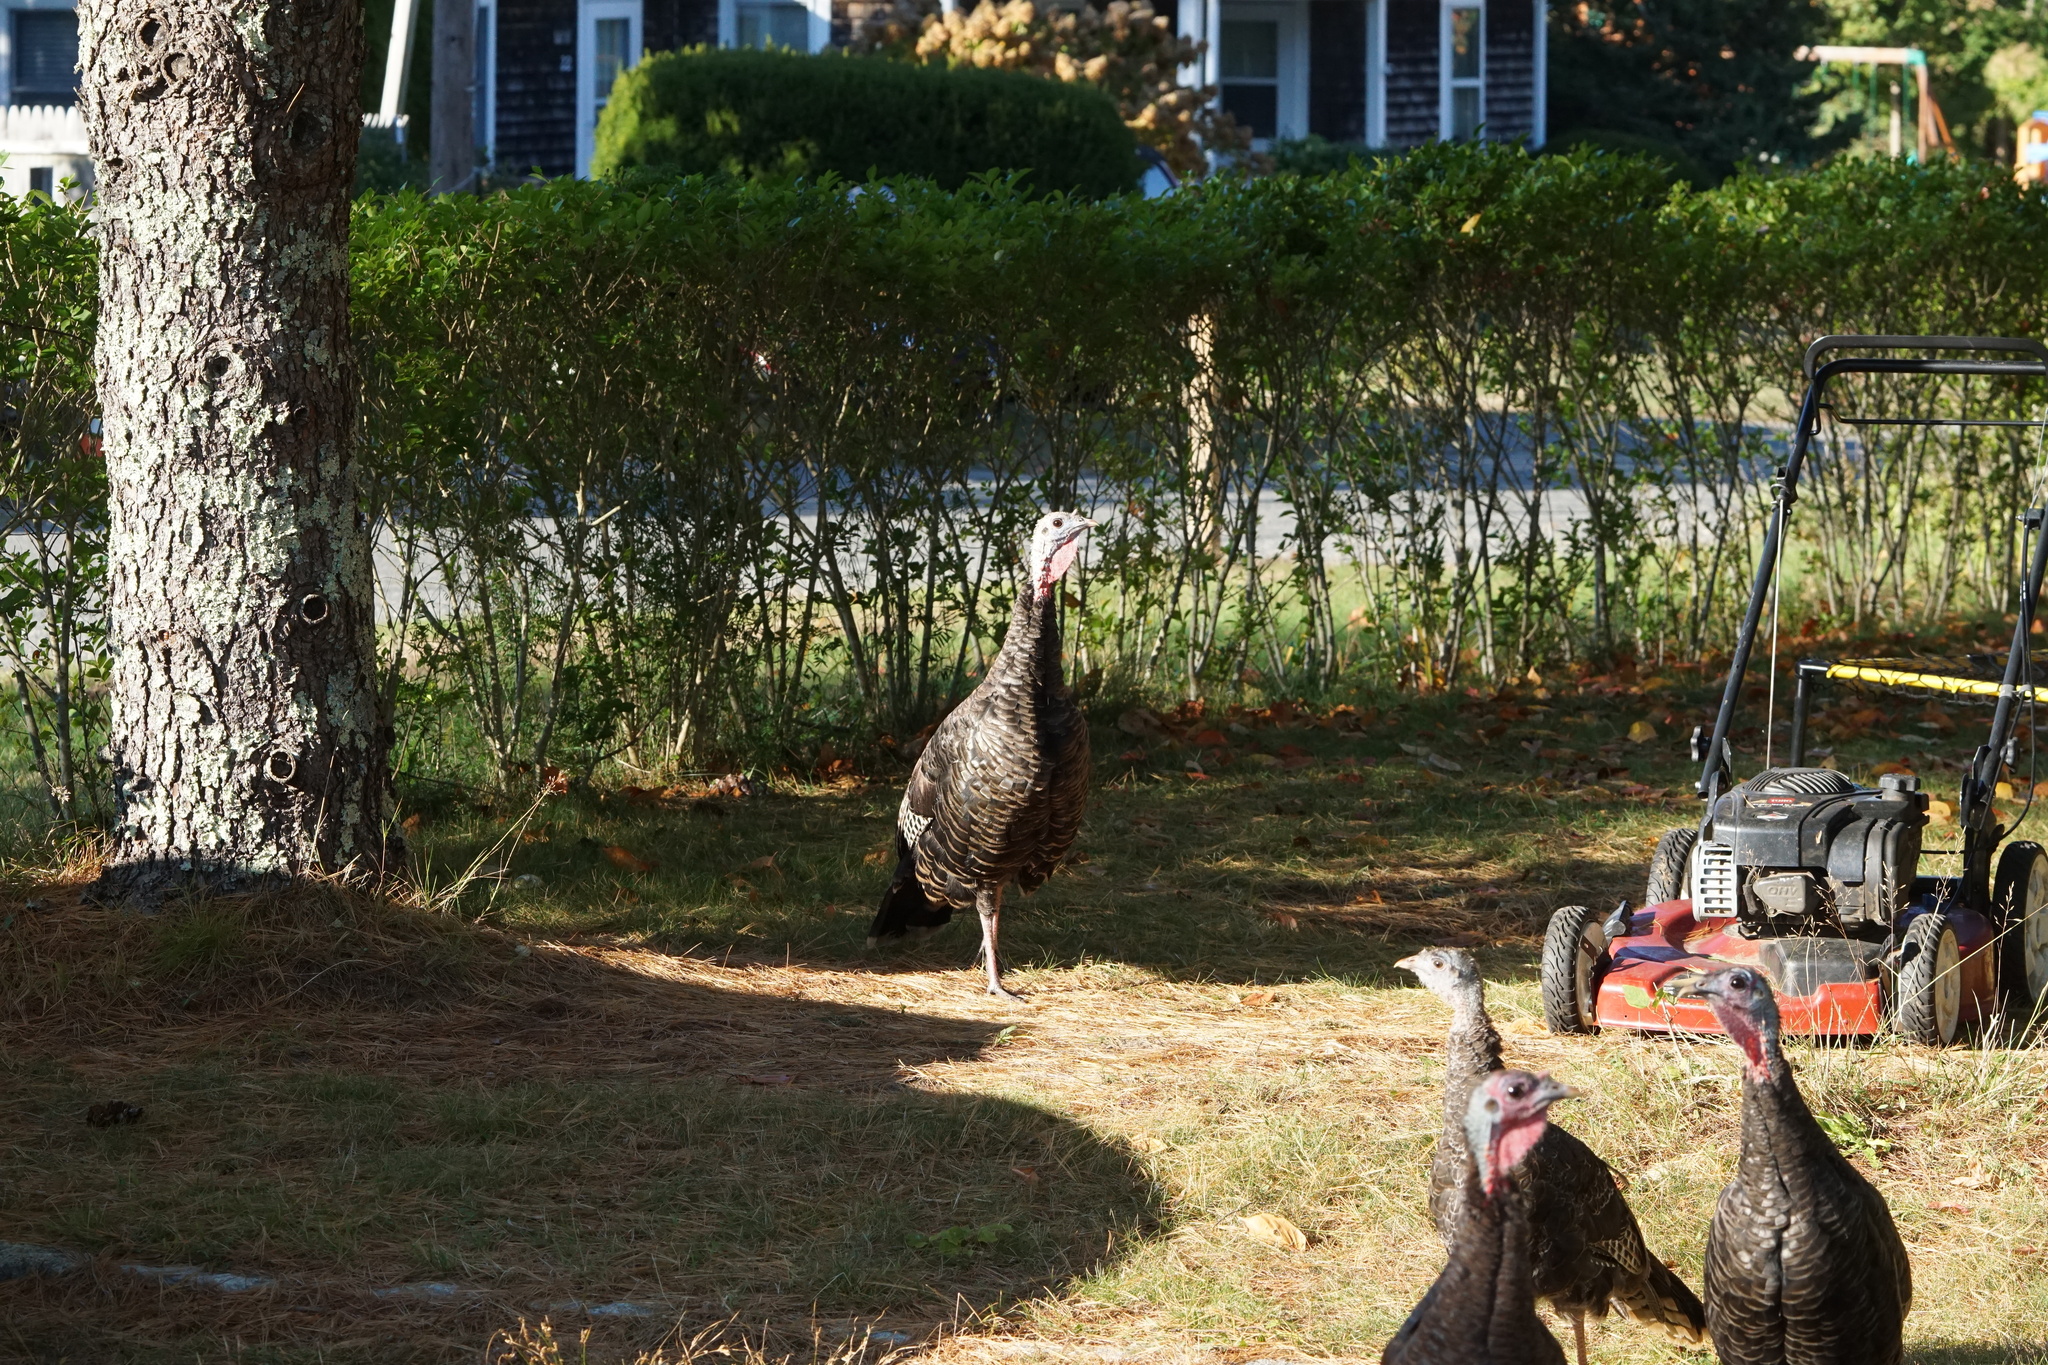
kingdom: Animalia
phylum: Chordata
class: Aves
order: Galliformes
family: Phasianidae
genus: Meleagris
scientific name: Meleagris gallopavo
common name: Wild turkey
